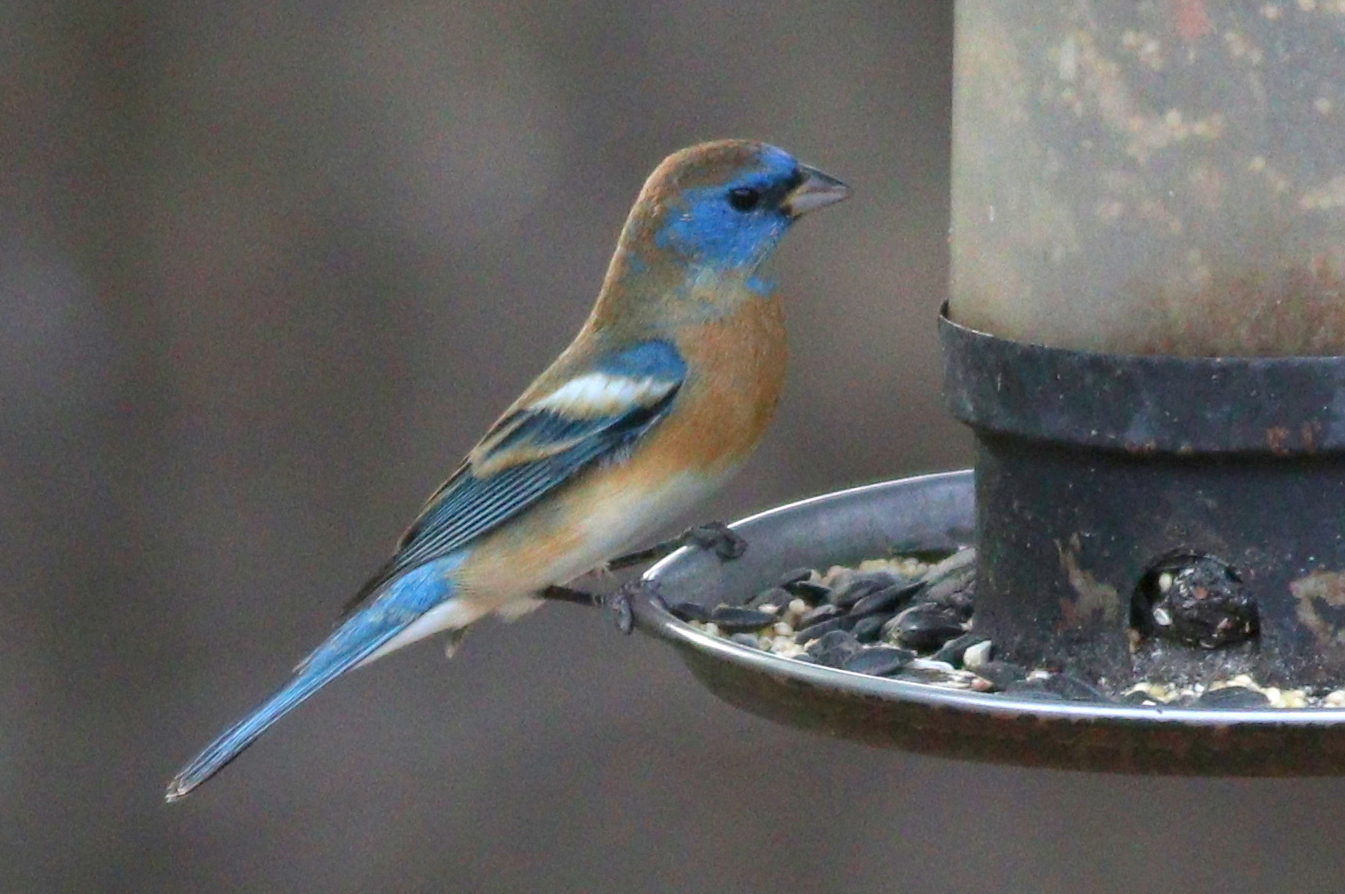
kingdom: Animalia
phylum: Chordata
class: Aves
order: Passeriformes
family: Cardinalidae
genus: Passerina
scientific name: Passerina amoena
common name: Lazuli bunting
